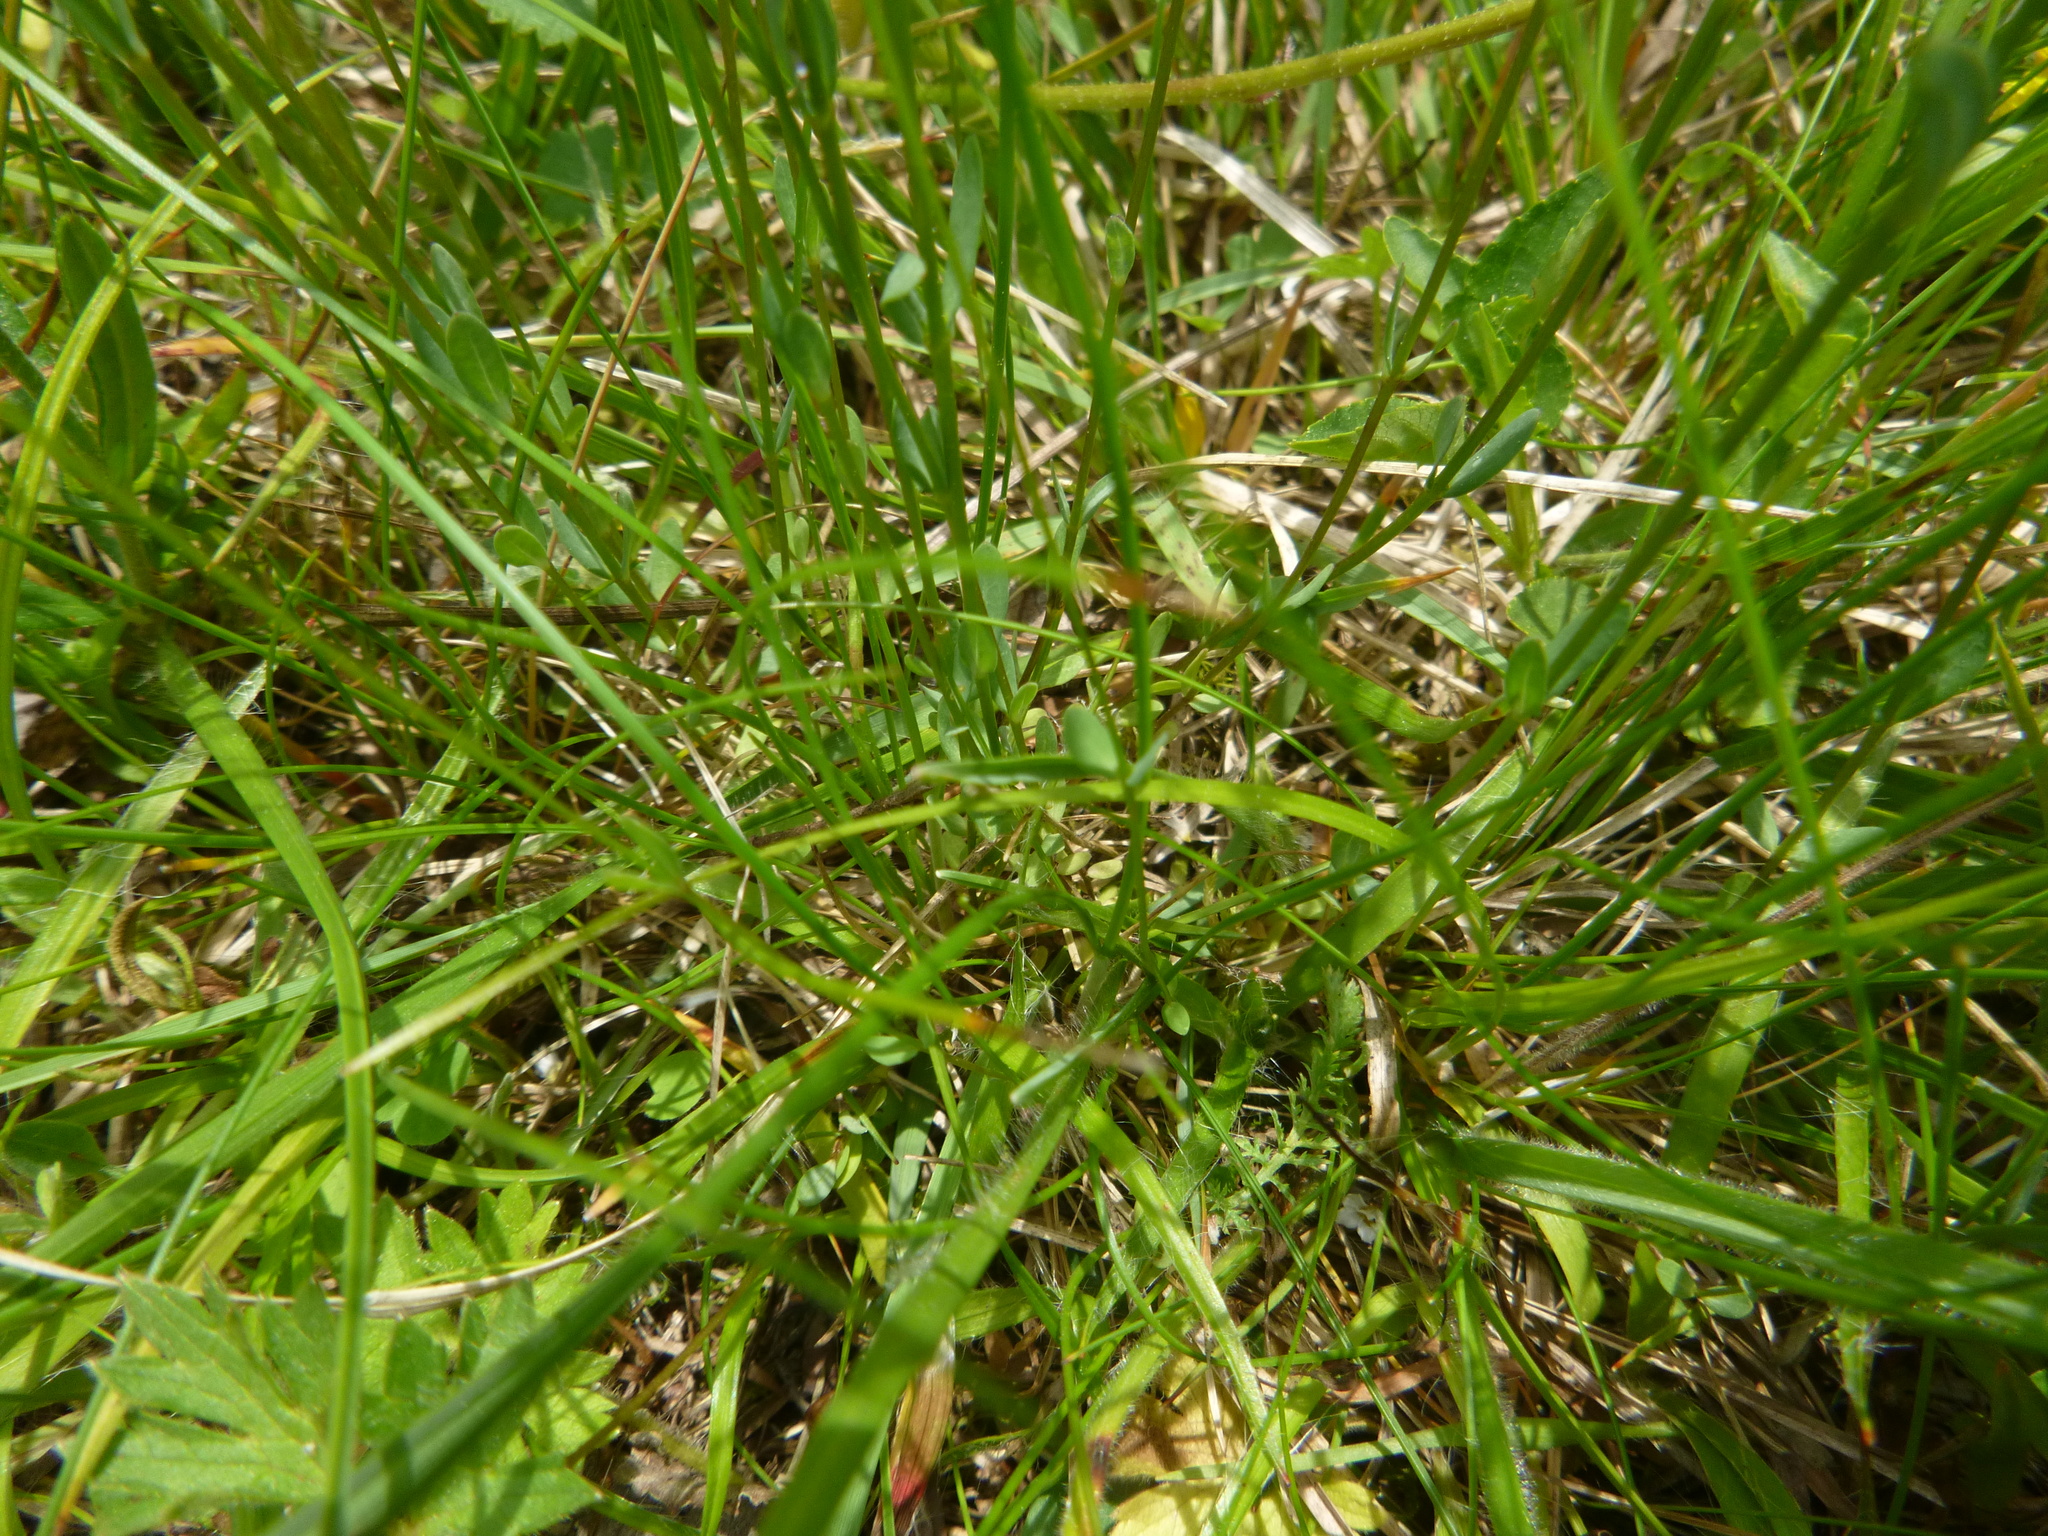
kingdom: Plantae
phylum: Tracheophyta
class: Magnoliopsida
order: Malpighiales
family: Linaceae
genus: Linum
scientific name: Linum catharticum
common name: Fairy flax
